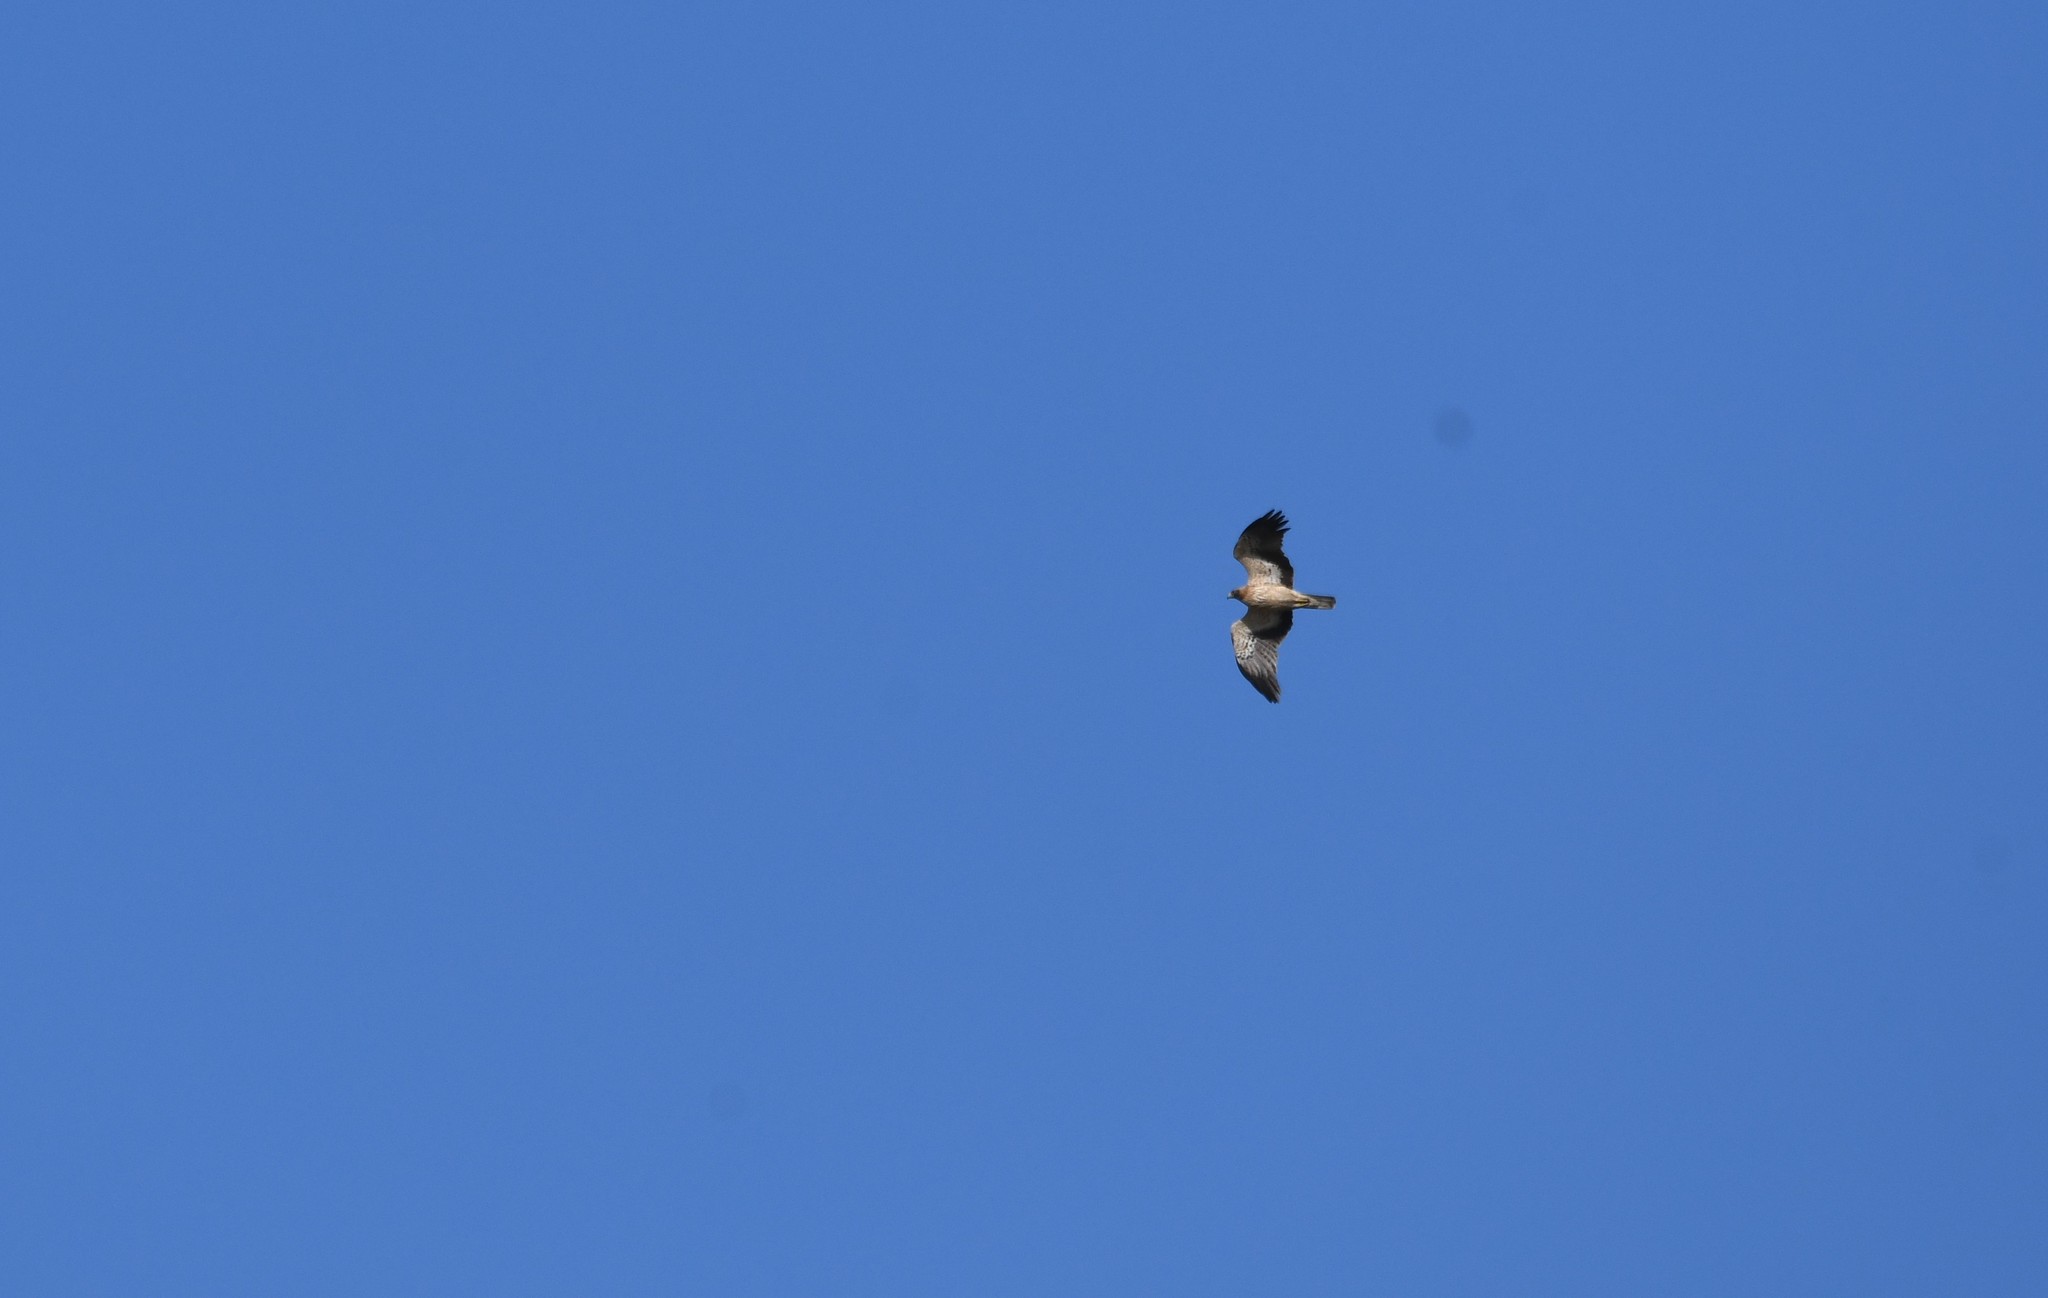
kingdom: Animalia
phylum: Chordata
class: Aves
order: Accipitriformes
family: Accipitridae
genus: Hieraaetus
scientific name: Hieraaetus pennatus
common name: Booted eagle
